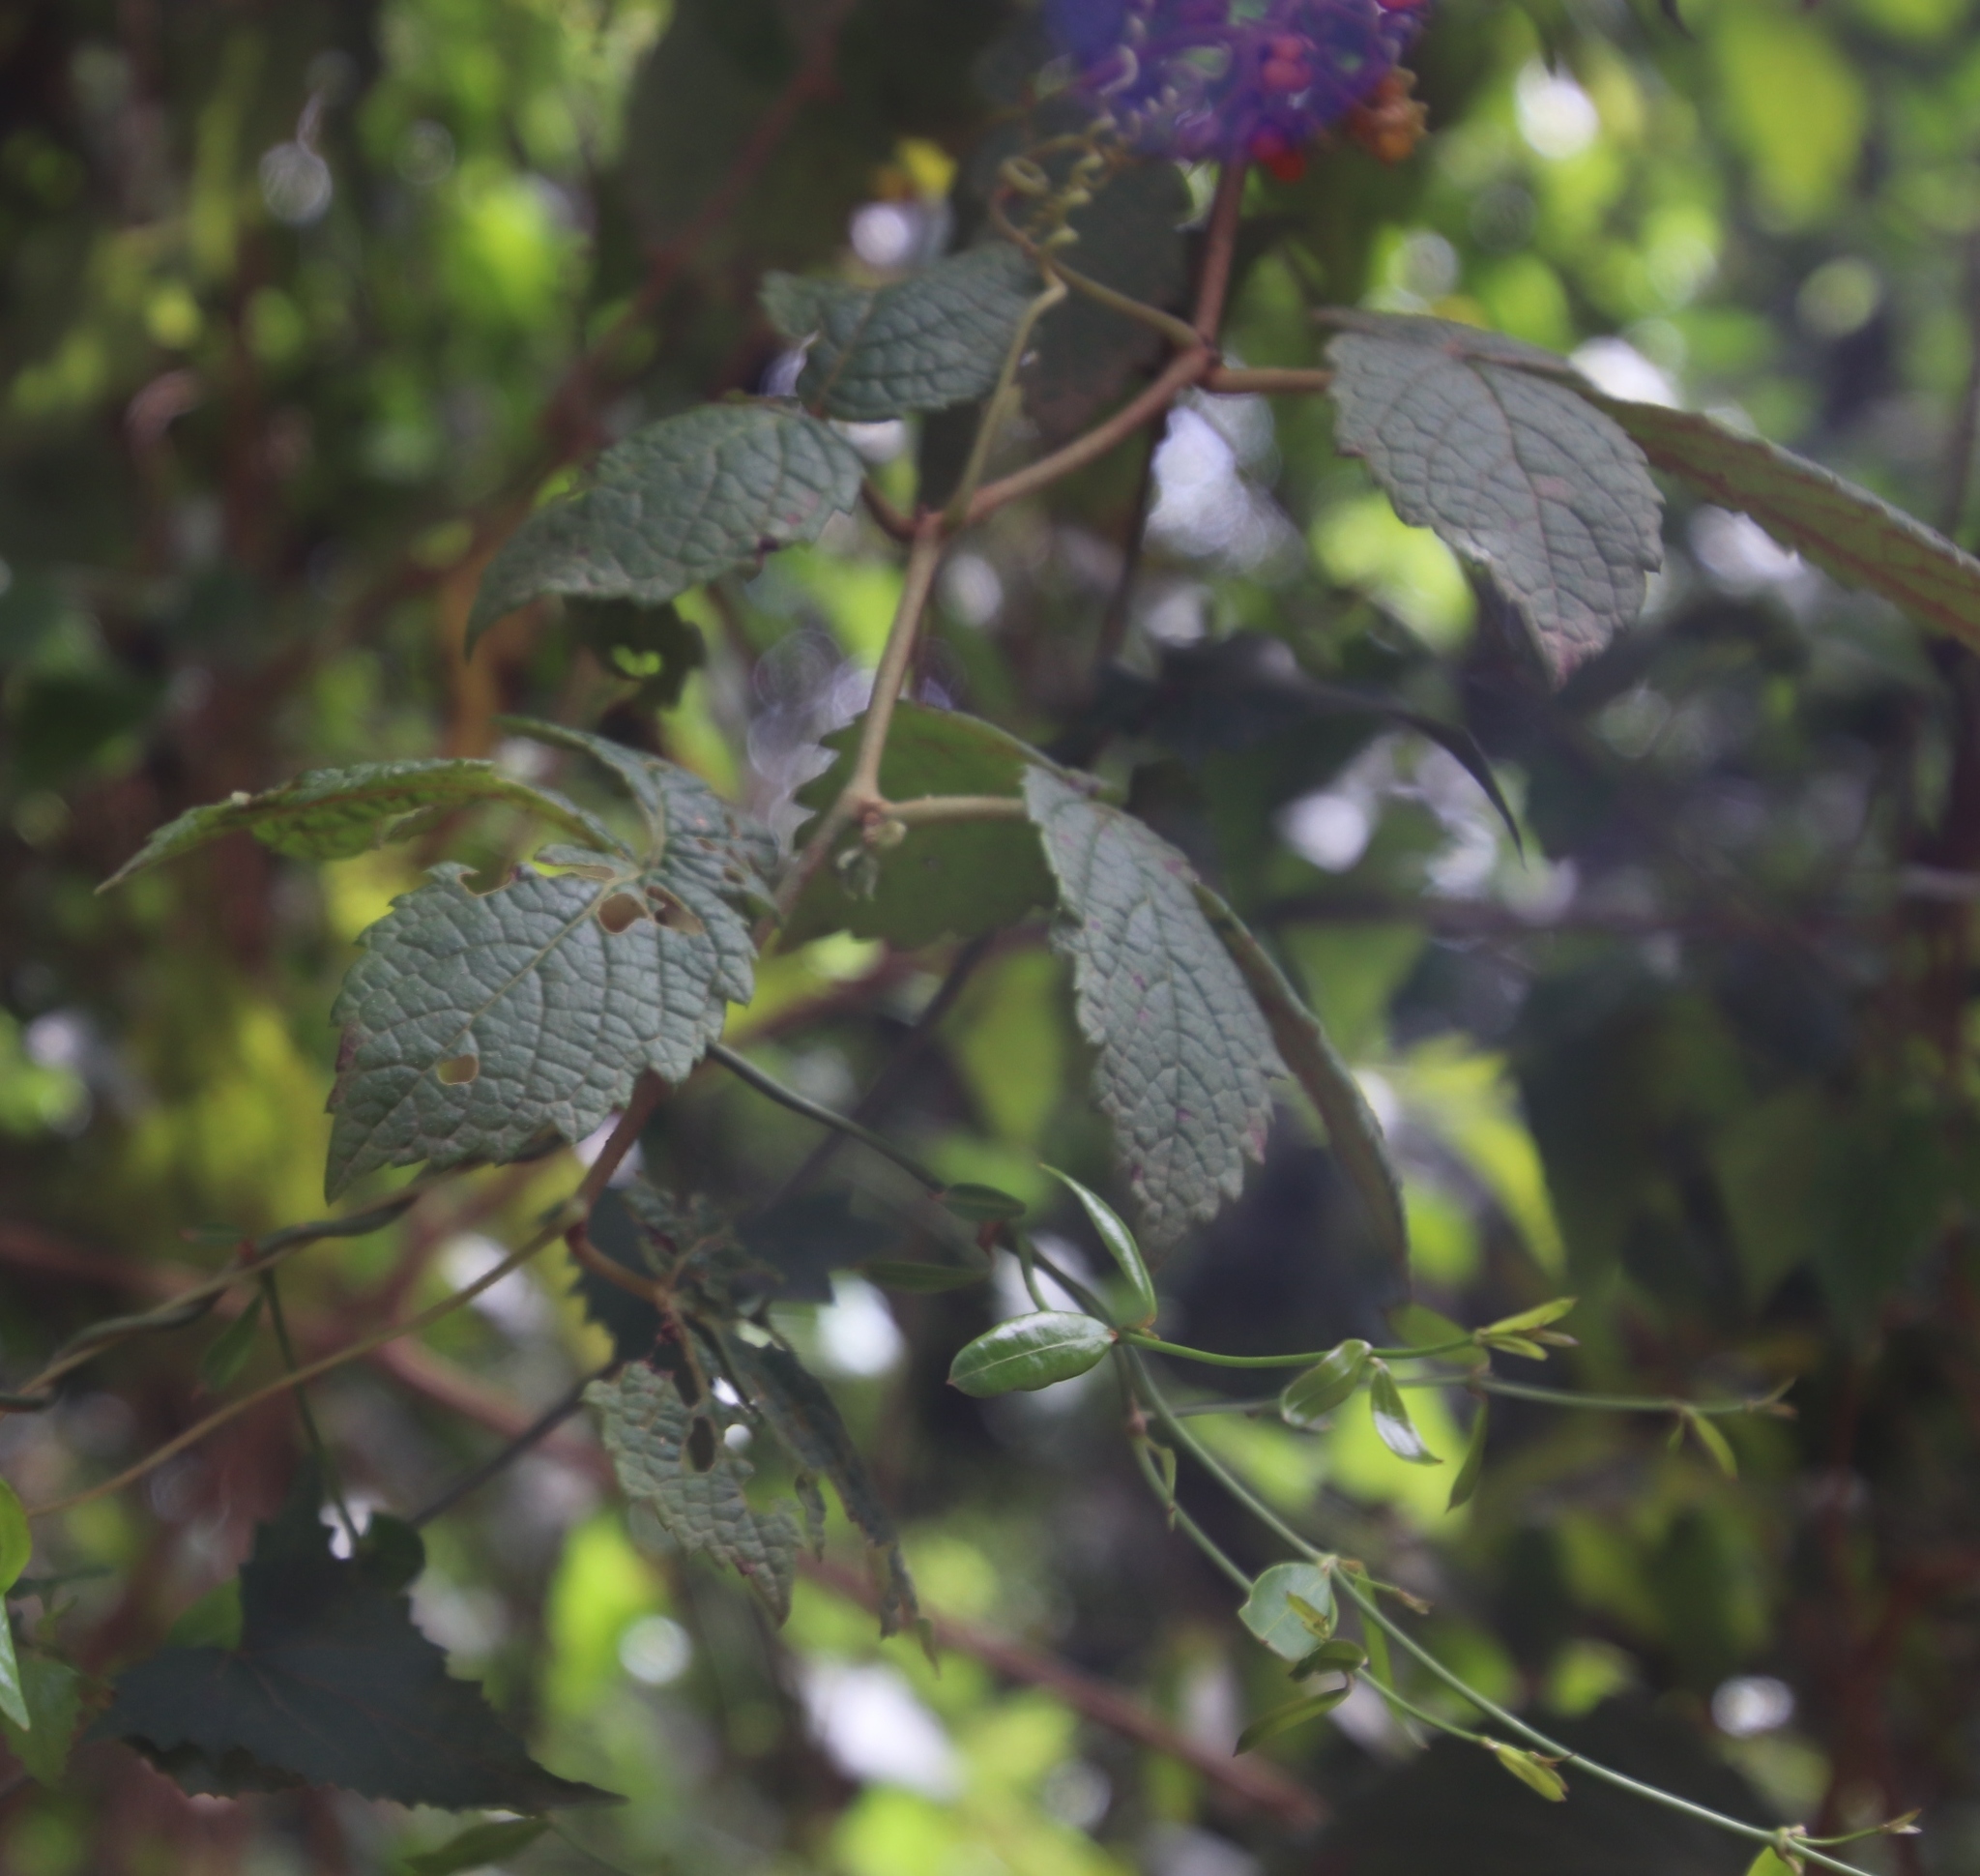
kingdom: Plantae
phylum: Tracheophyta
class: Magnoliopsida
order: Rosales
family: Rosaceae
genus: Rubus
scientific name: Rubus pinnatus
